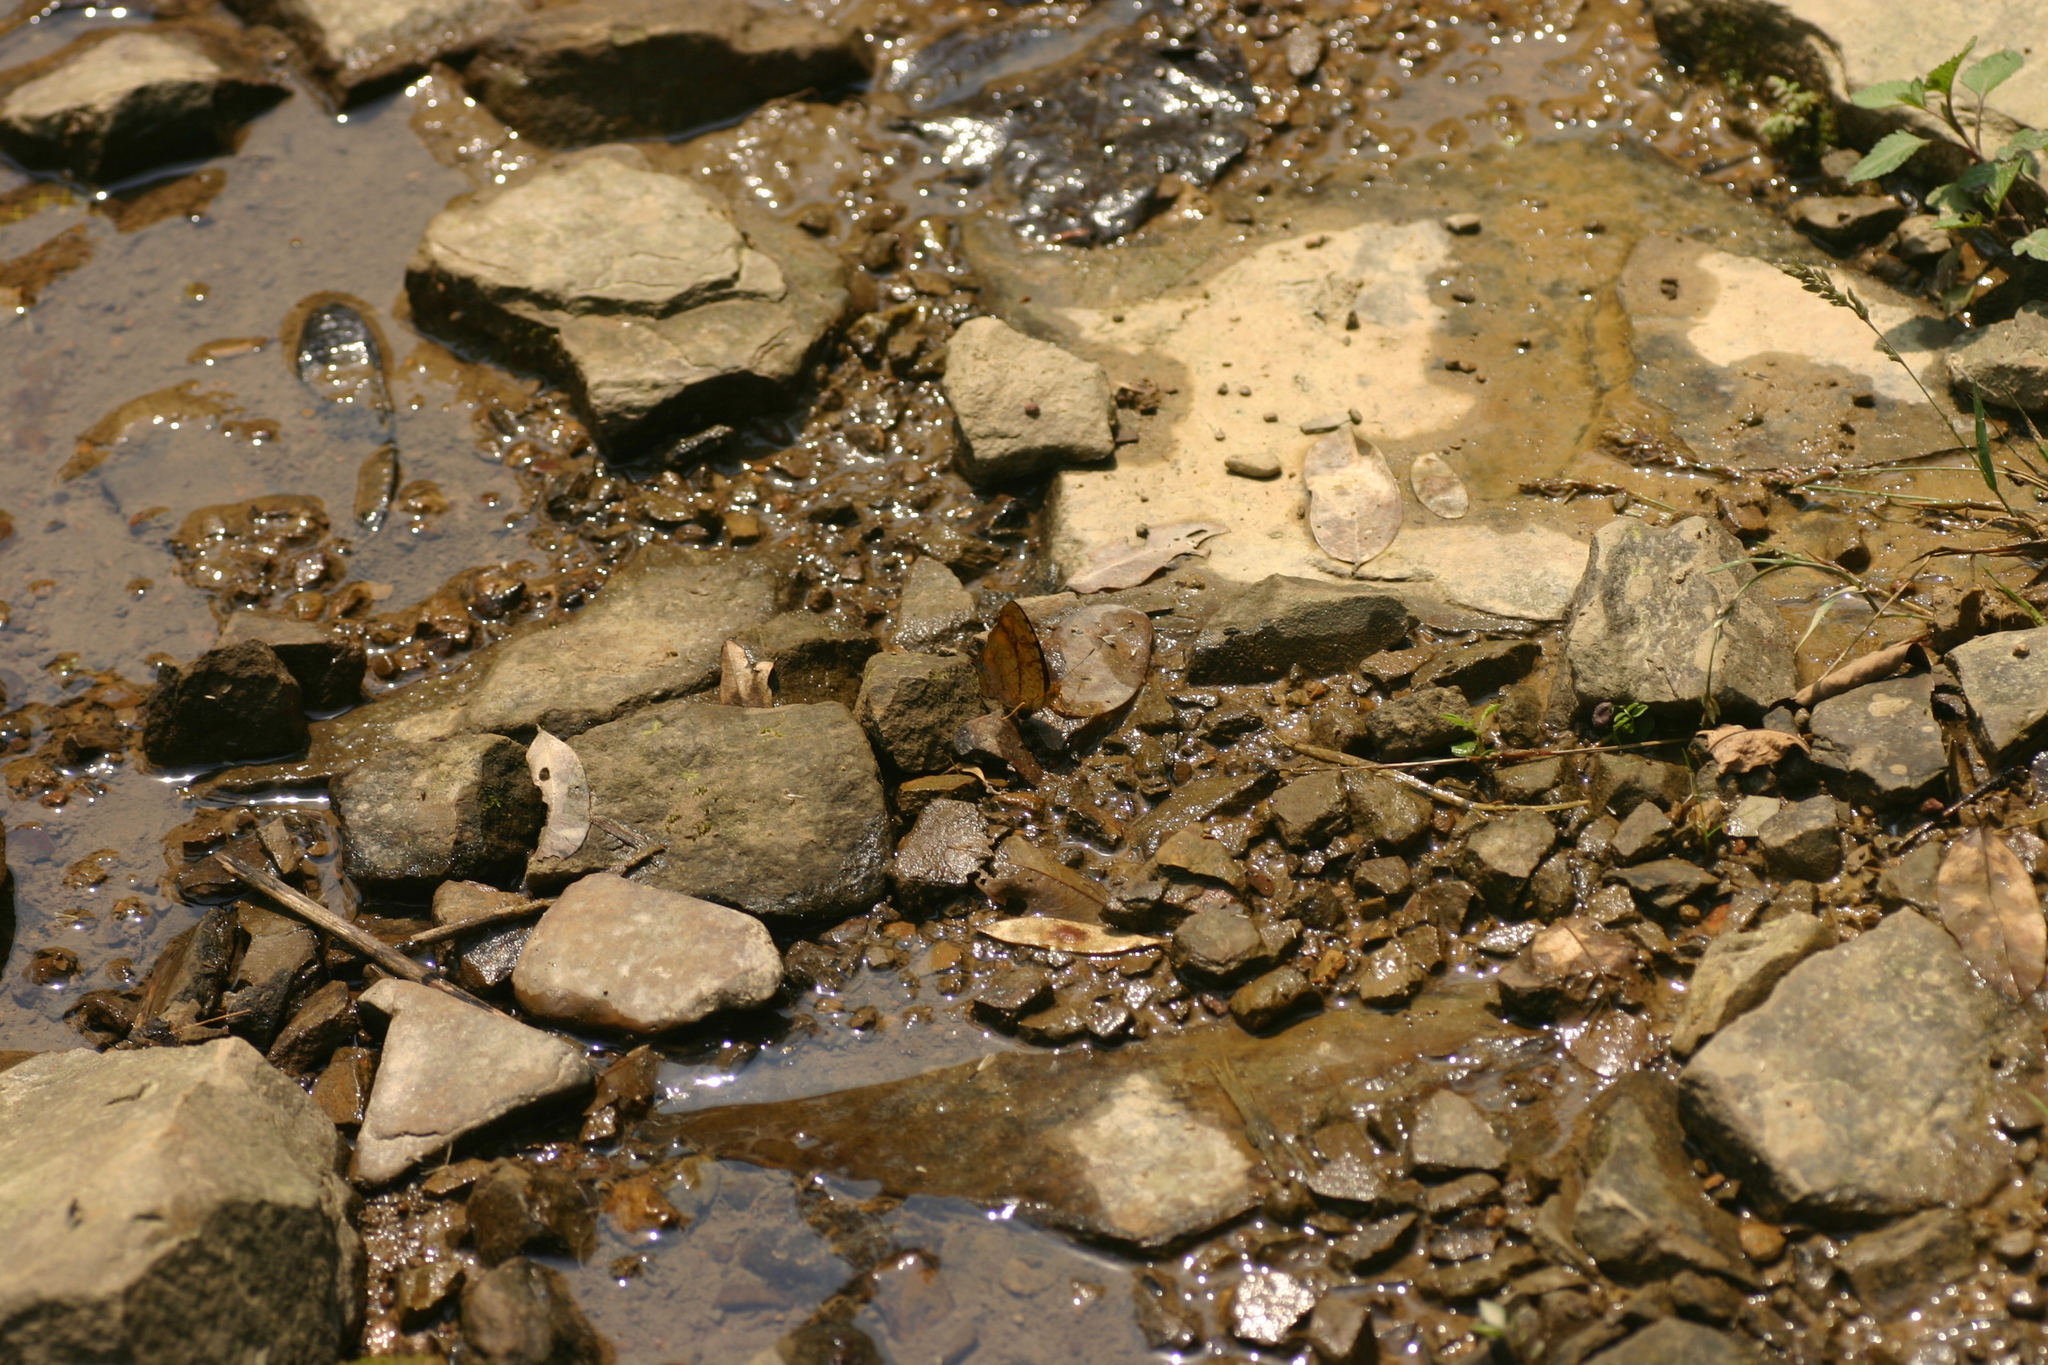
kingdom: Animalia
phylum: Arthropoda
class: Insecta
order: Lepidoptera
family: Nymphalidae
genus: Symbrenthia
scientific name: Symbrenthia hypselis
